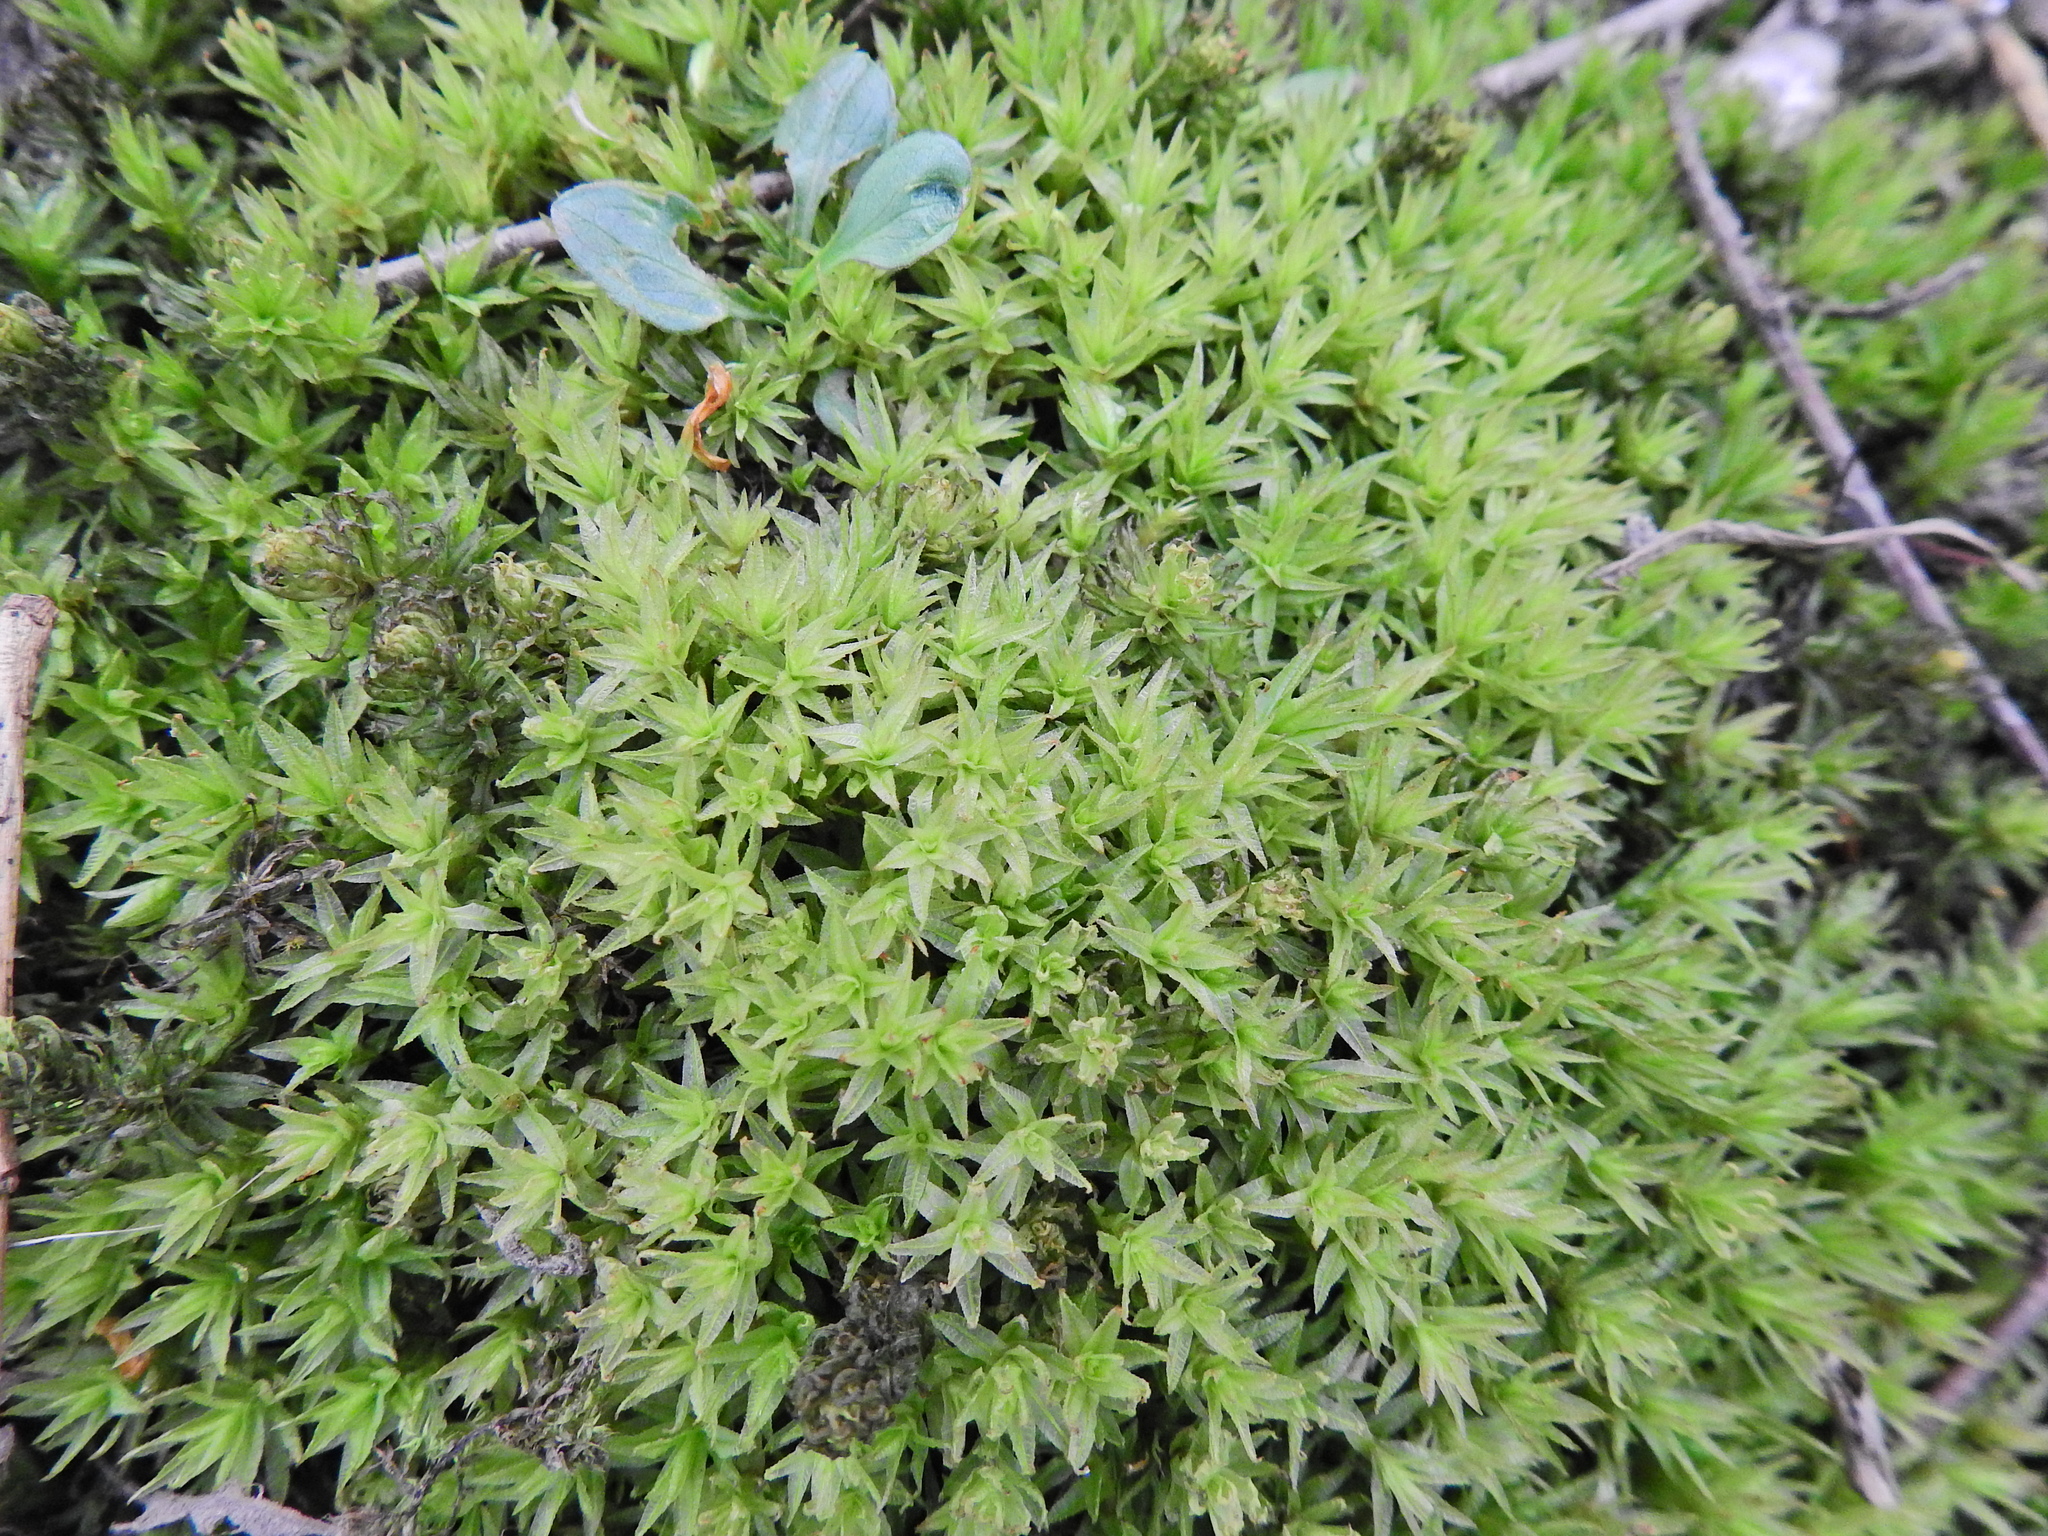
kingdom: Plantae
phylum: Bryophyta
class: Polytrichopsida
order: Polytrichales
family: Polytrichaceae
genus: Atrichum
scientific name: Atrichum undulatum
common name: Common smoothcap
